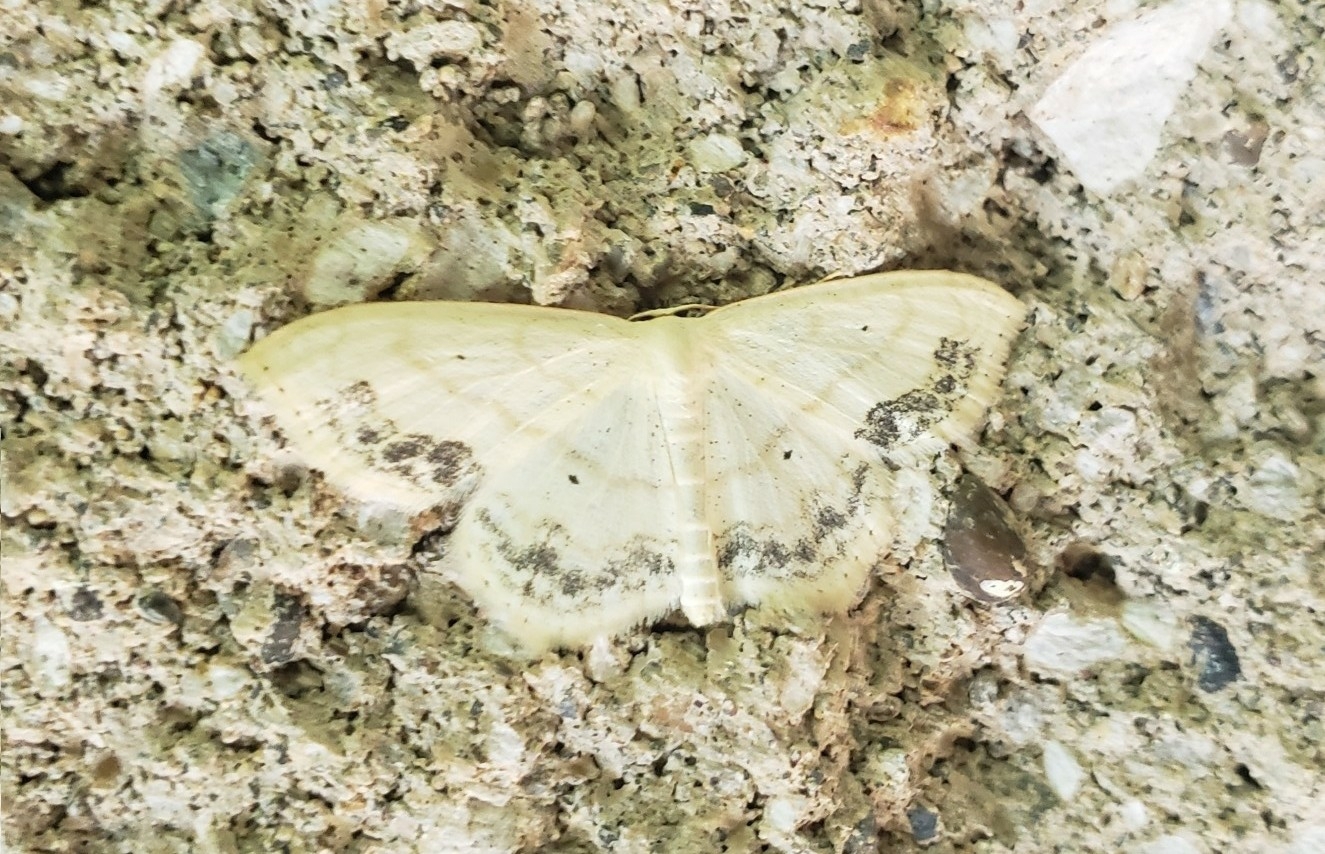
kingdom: Animalia
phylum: Arthropoda
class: Insecta
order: Lepidoptera
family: Geometridae
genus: Scopula
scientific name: Scopula limboundata
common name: Large lace border
